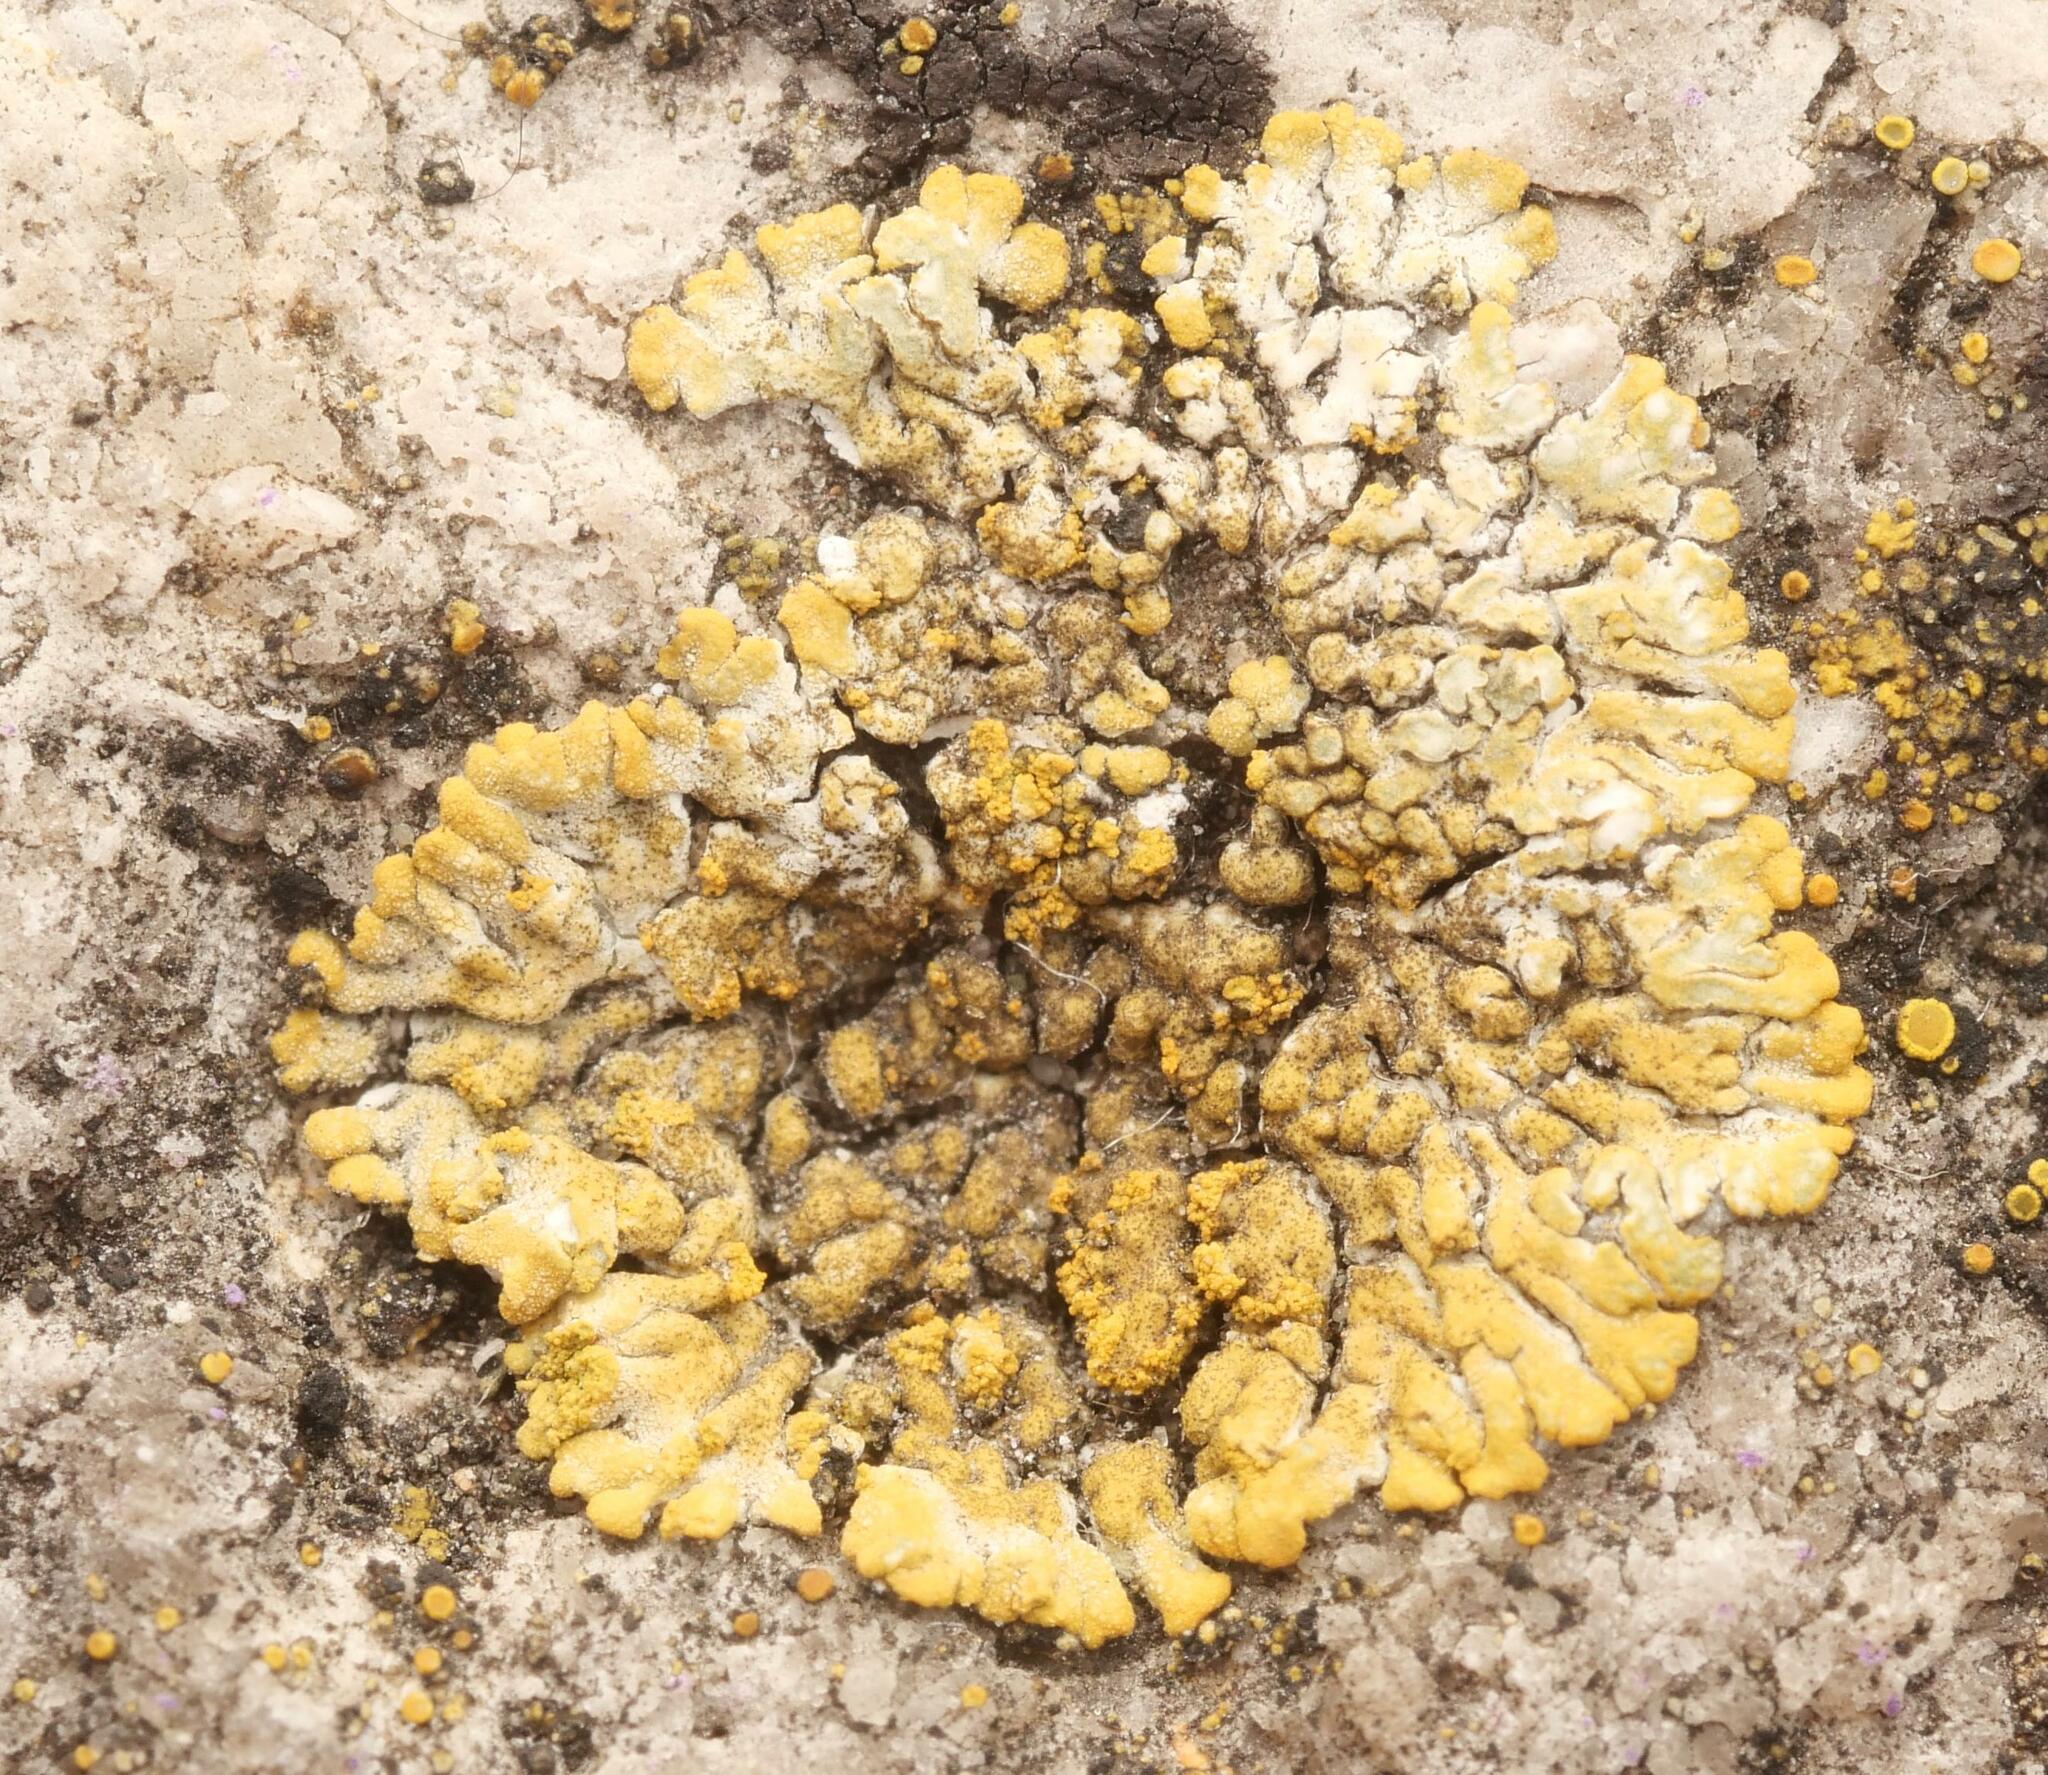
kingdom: Fungi
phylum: Ascomycota
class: Lecanoromycetes
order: Teloschistales
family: Teloschistaceae
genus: Calogaya
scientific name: Calogaya decipiens
